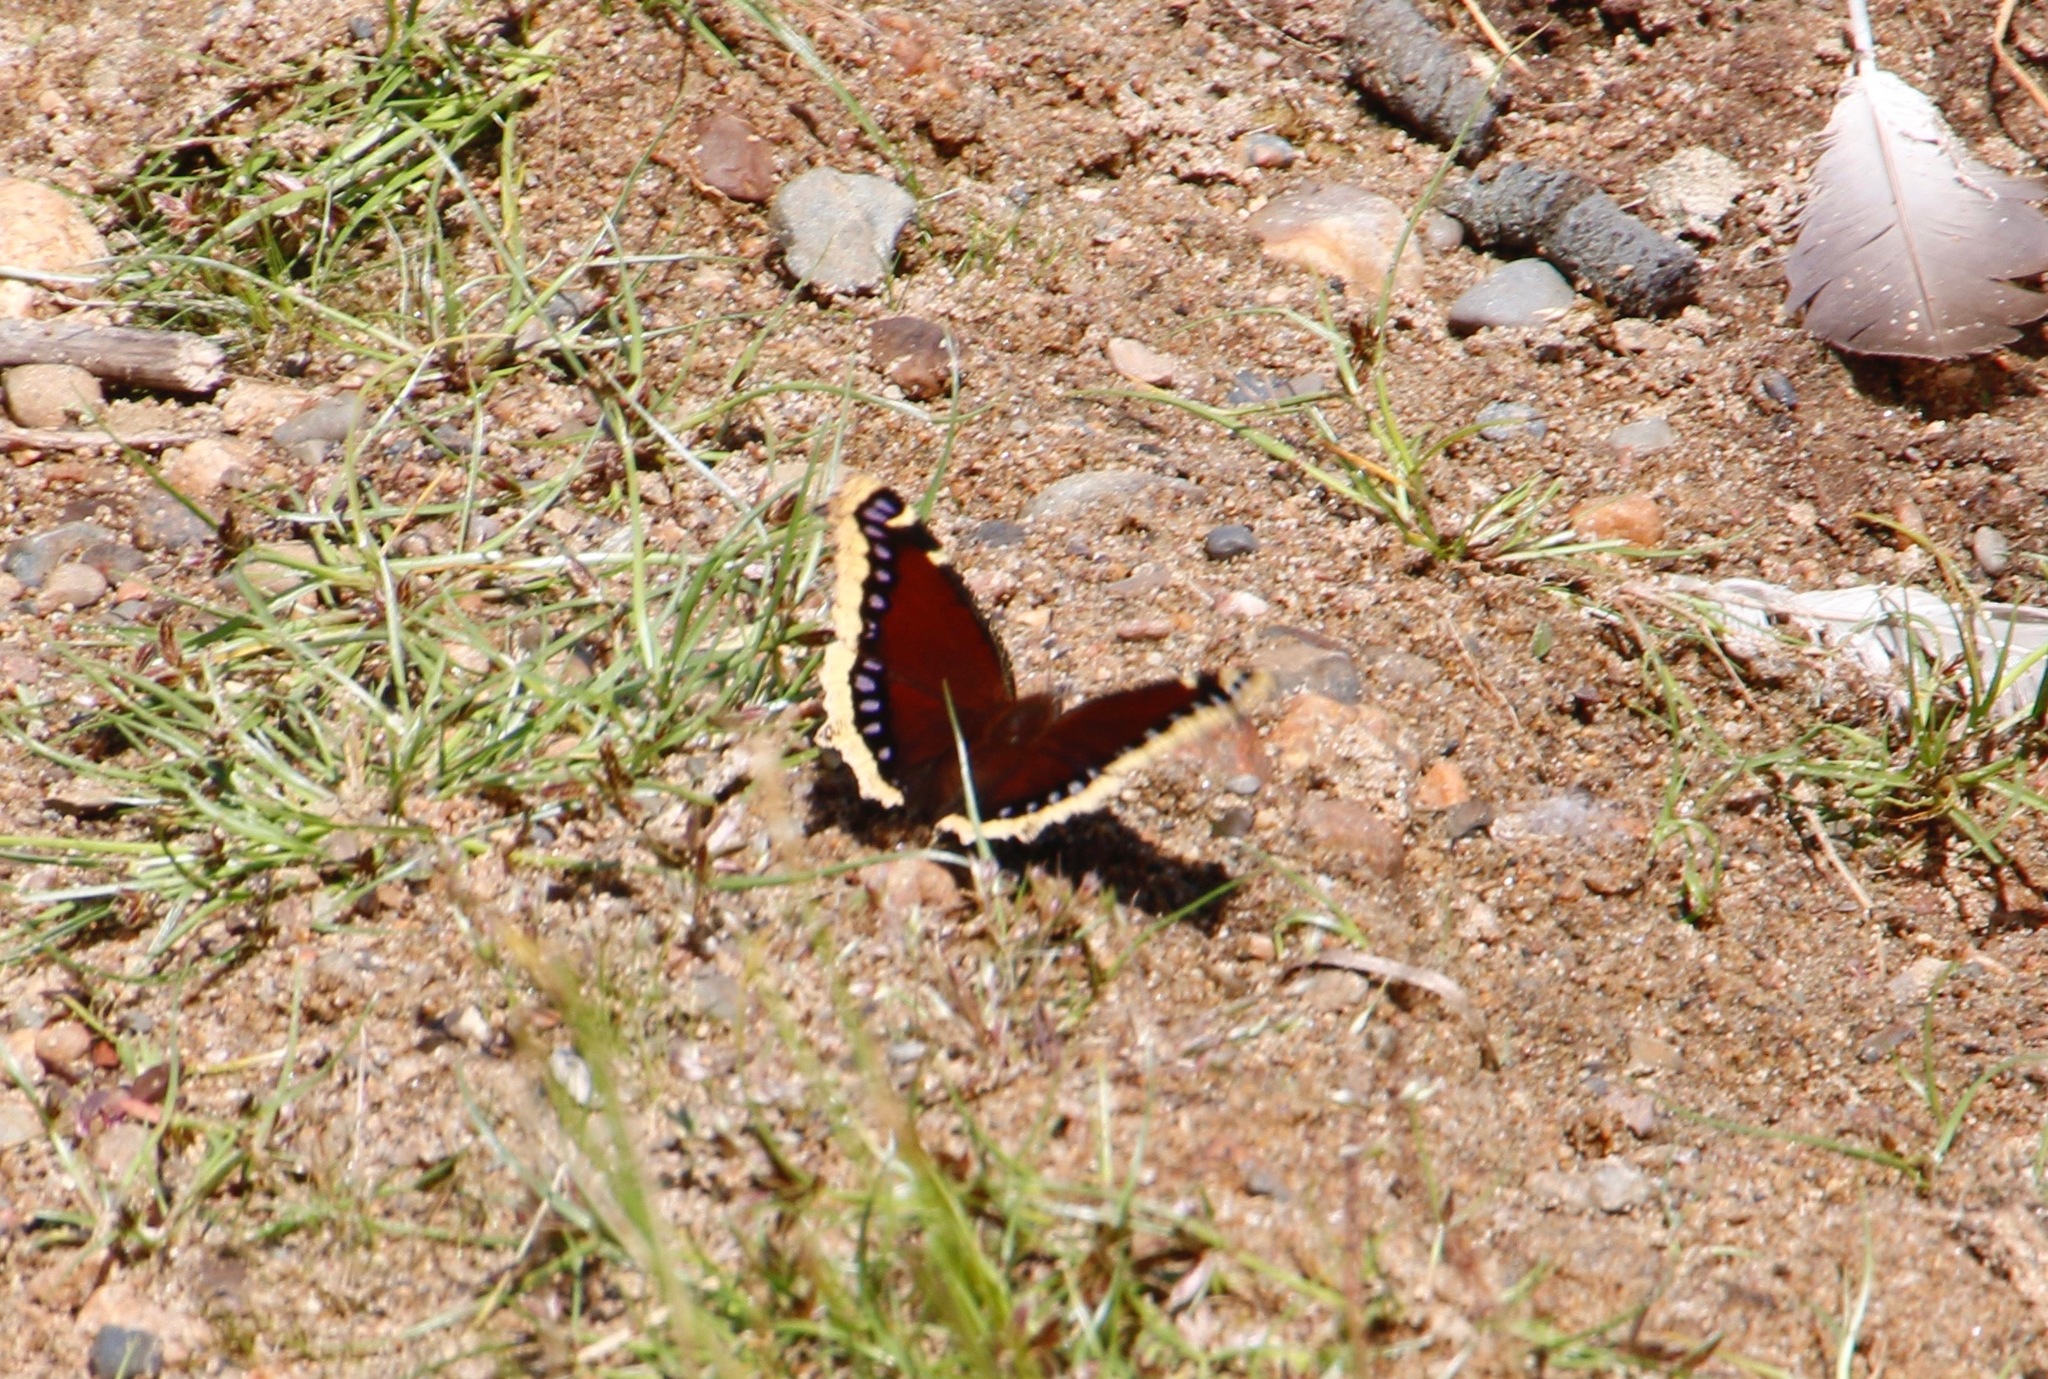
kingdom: Animalia
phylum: Arthropoda
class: Insecta
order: Lepidoptera
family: Nymphalidae
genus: Nymphalis
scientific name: Nymphalis antiopa
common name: Camberwell beauty
